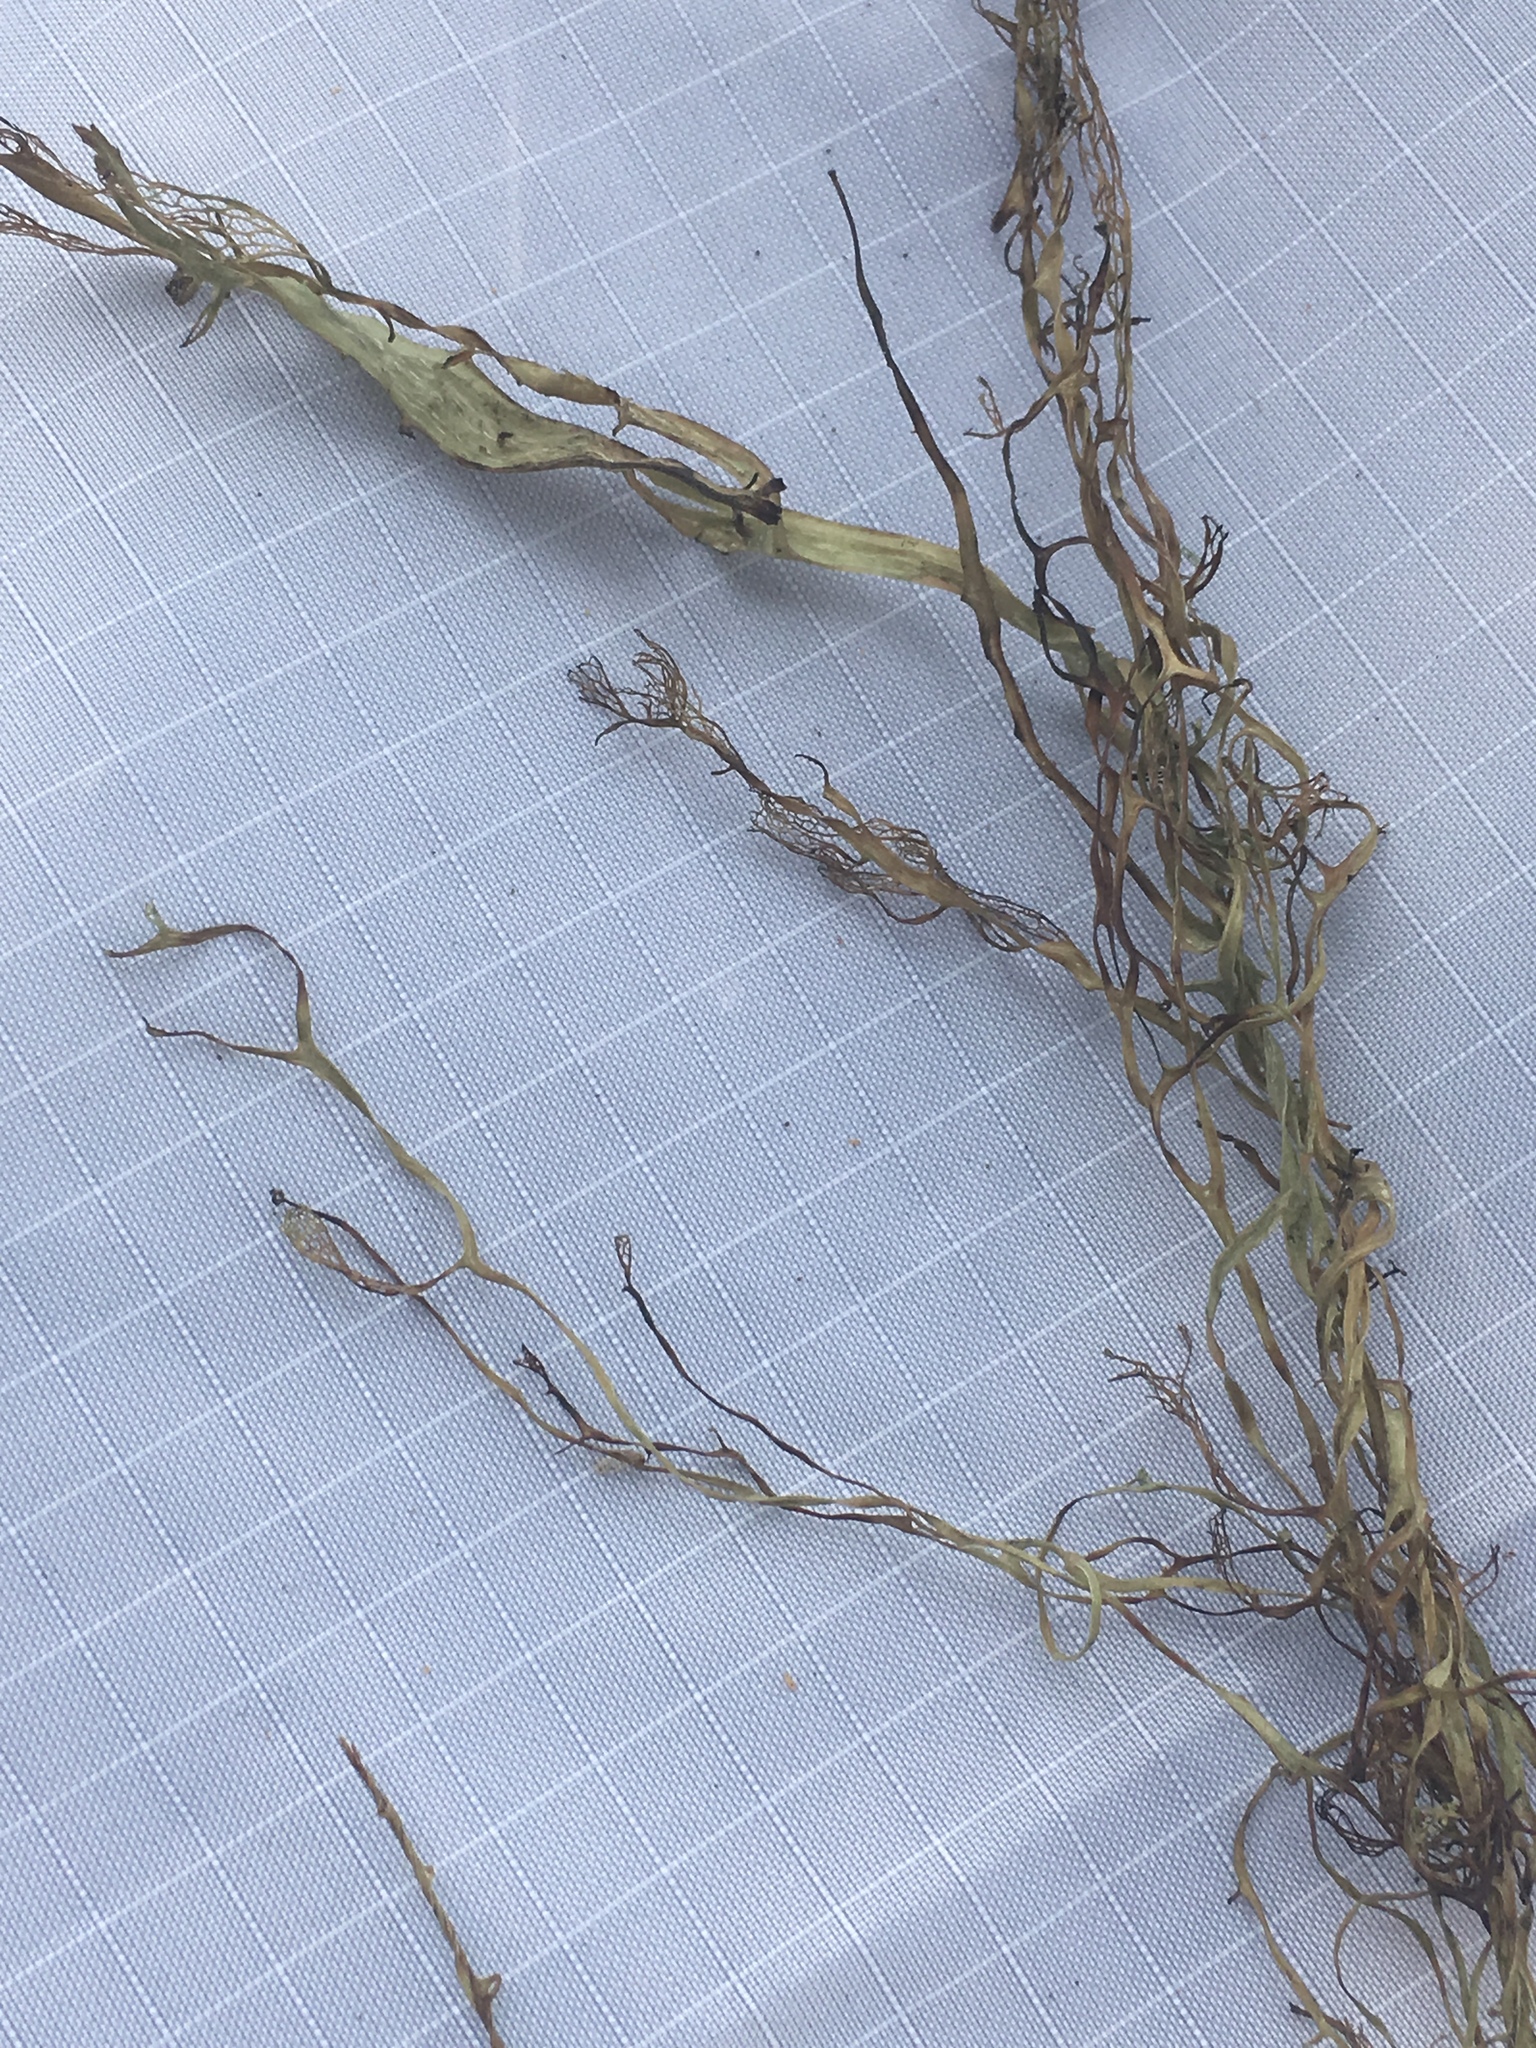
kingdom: Fungi
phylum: Ascomycota
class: Lecanoromycetes
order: Lecanorales
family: Ramalinaceae
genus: Ramalina
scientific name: Ramalina menziesii
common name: Lace lichen
